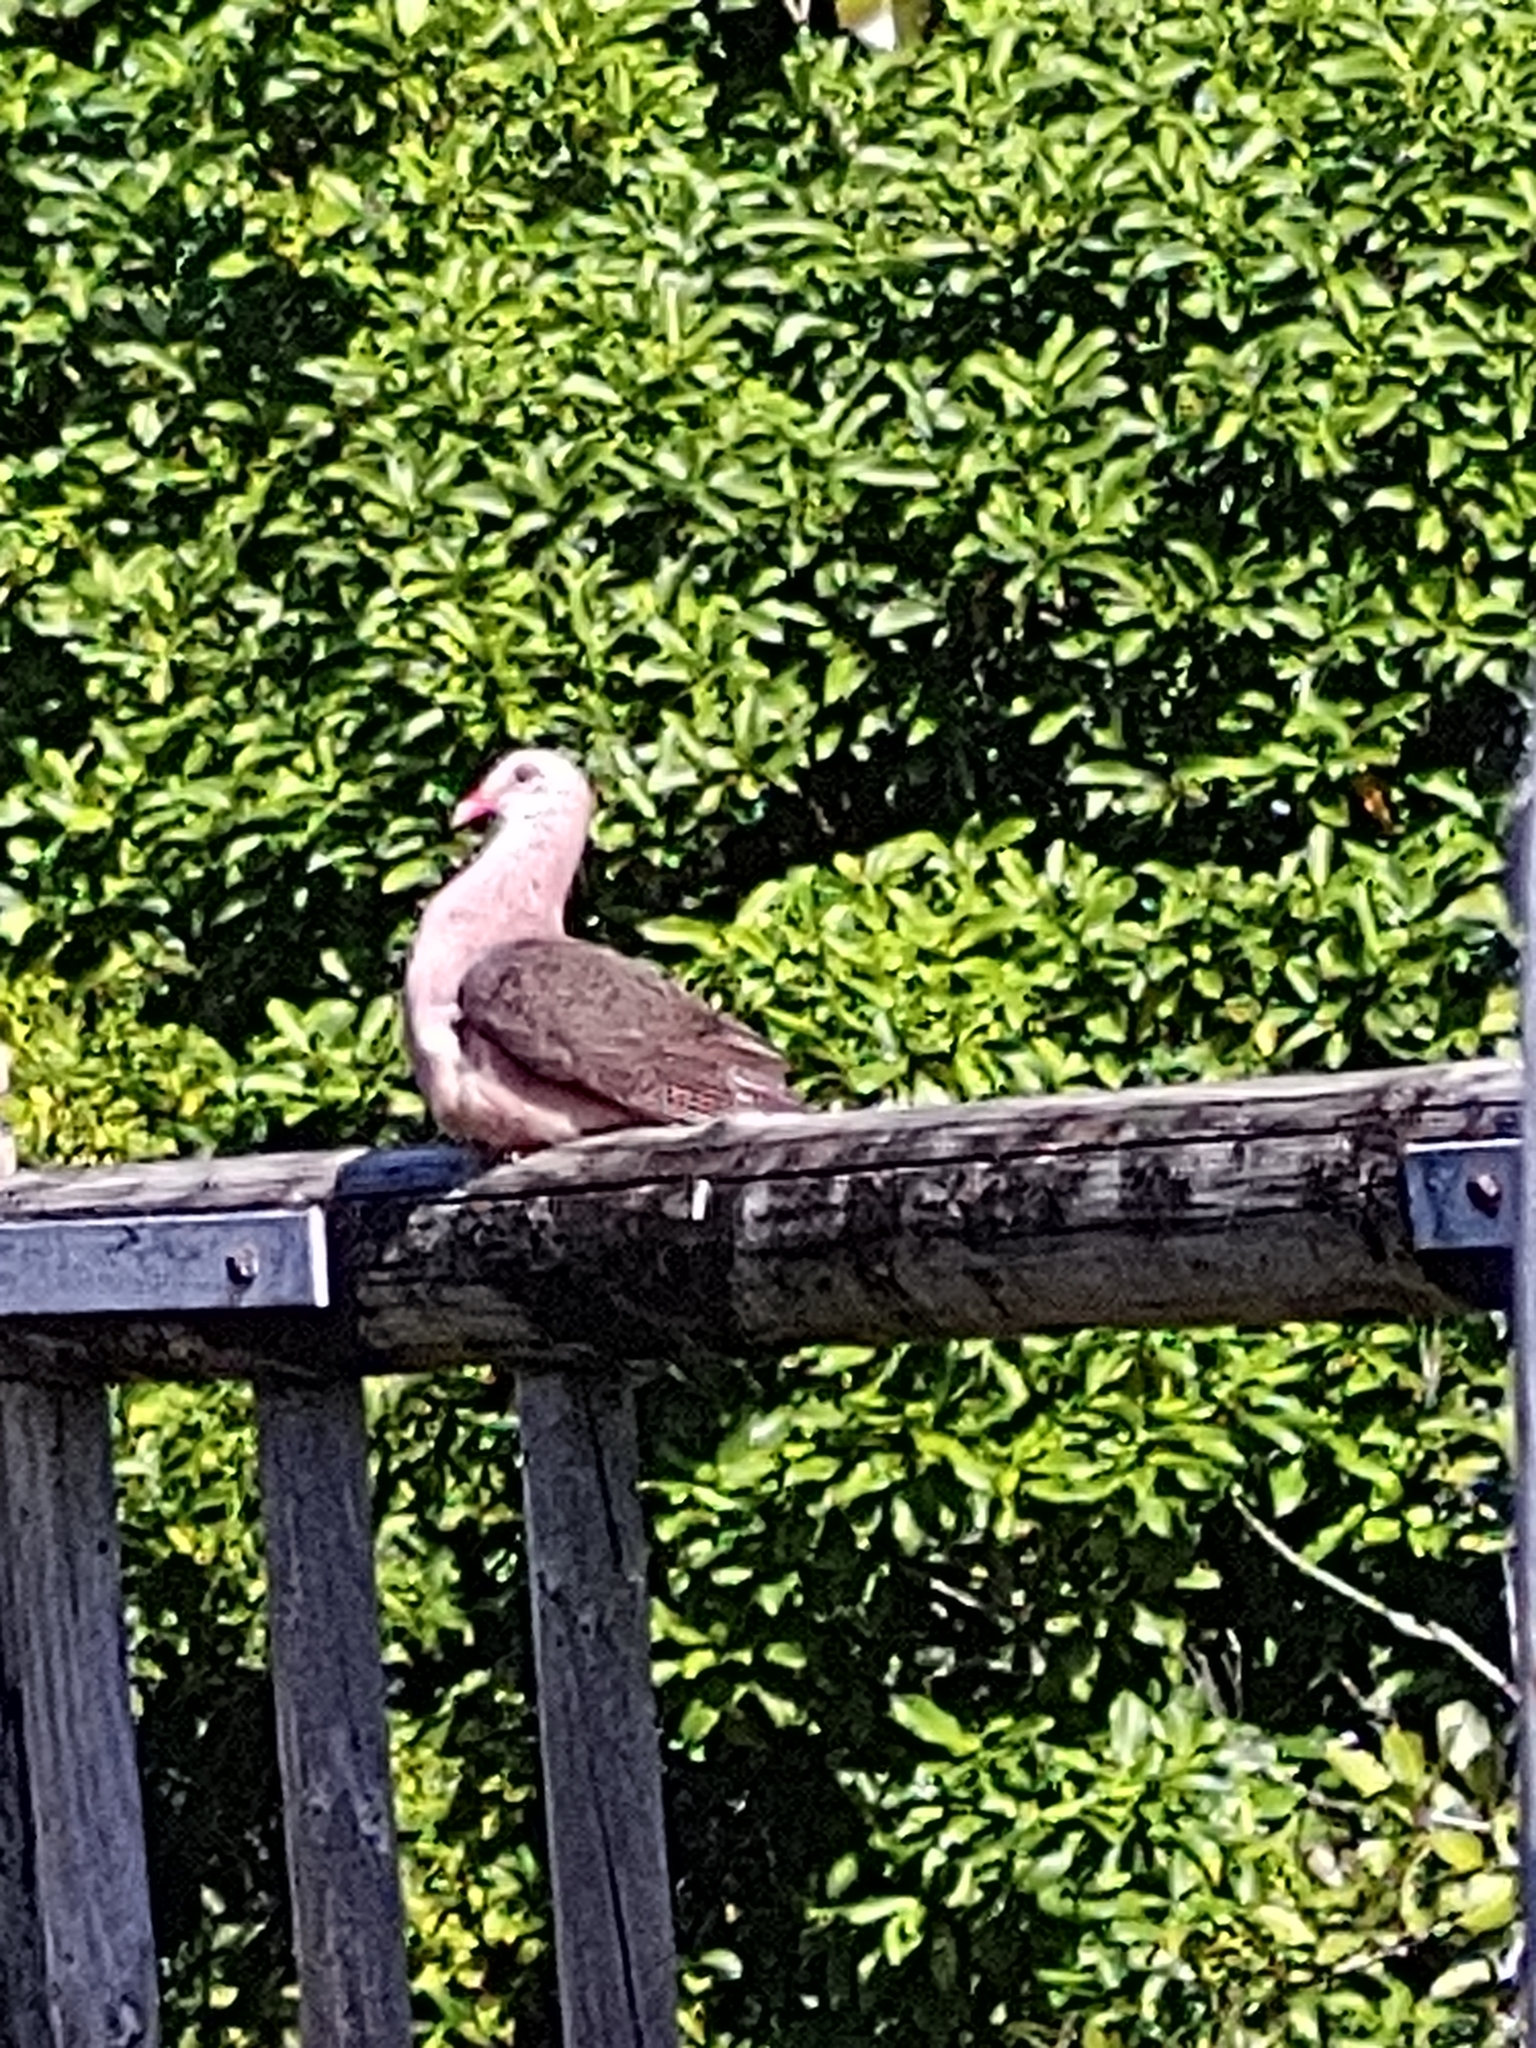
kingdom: Animalia
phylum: Chordata
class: Aves
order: Columbiformes
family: Columbidae
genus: Nesoenas
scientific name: Nesoenas mayeri
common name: Pink pigeon
